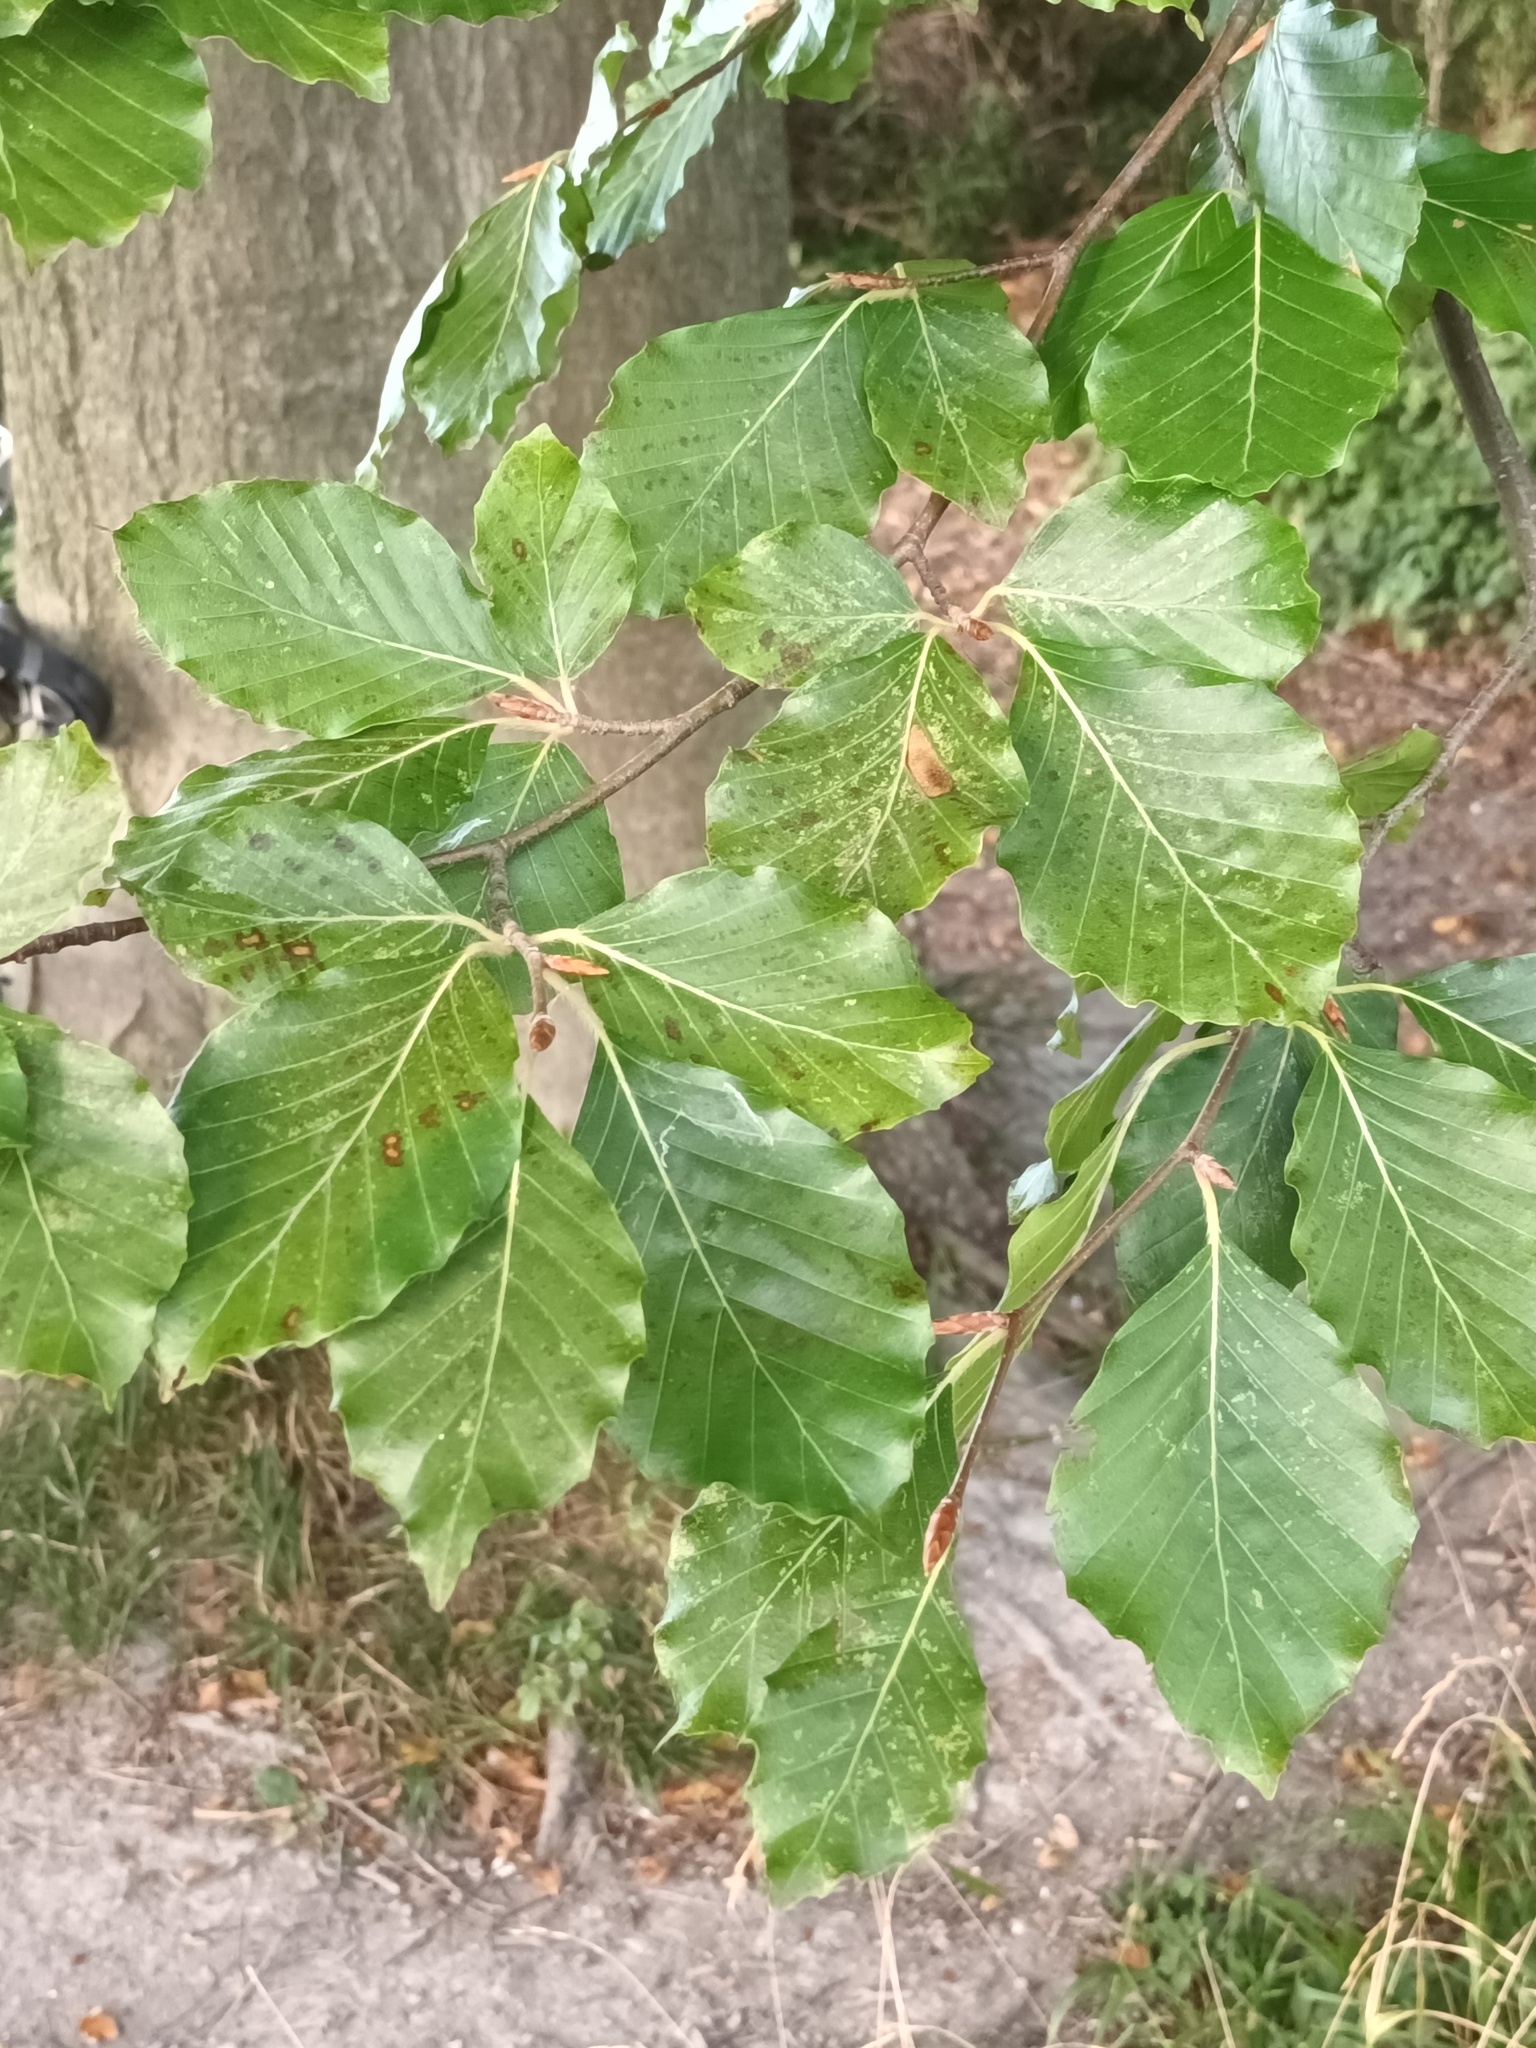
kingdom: Plantae
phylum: Tracheophyta
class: Magnoliopsida
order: Fagales
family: Fagaceae
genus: Fagus
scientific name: Fagus sylvatica
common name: Beech
